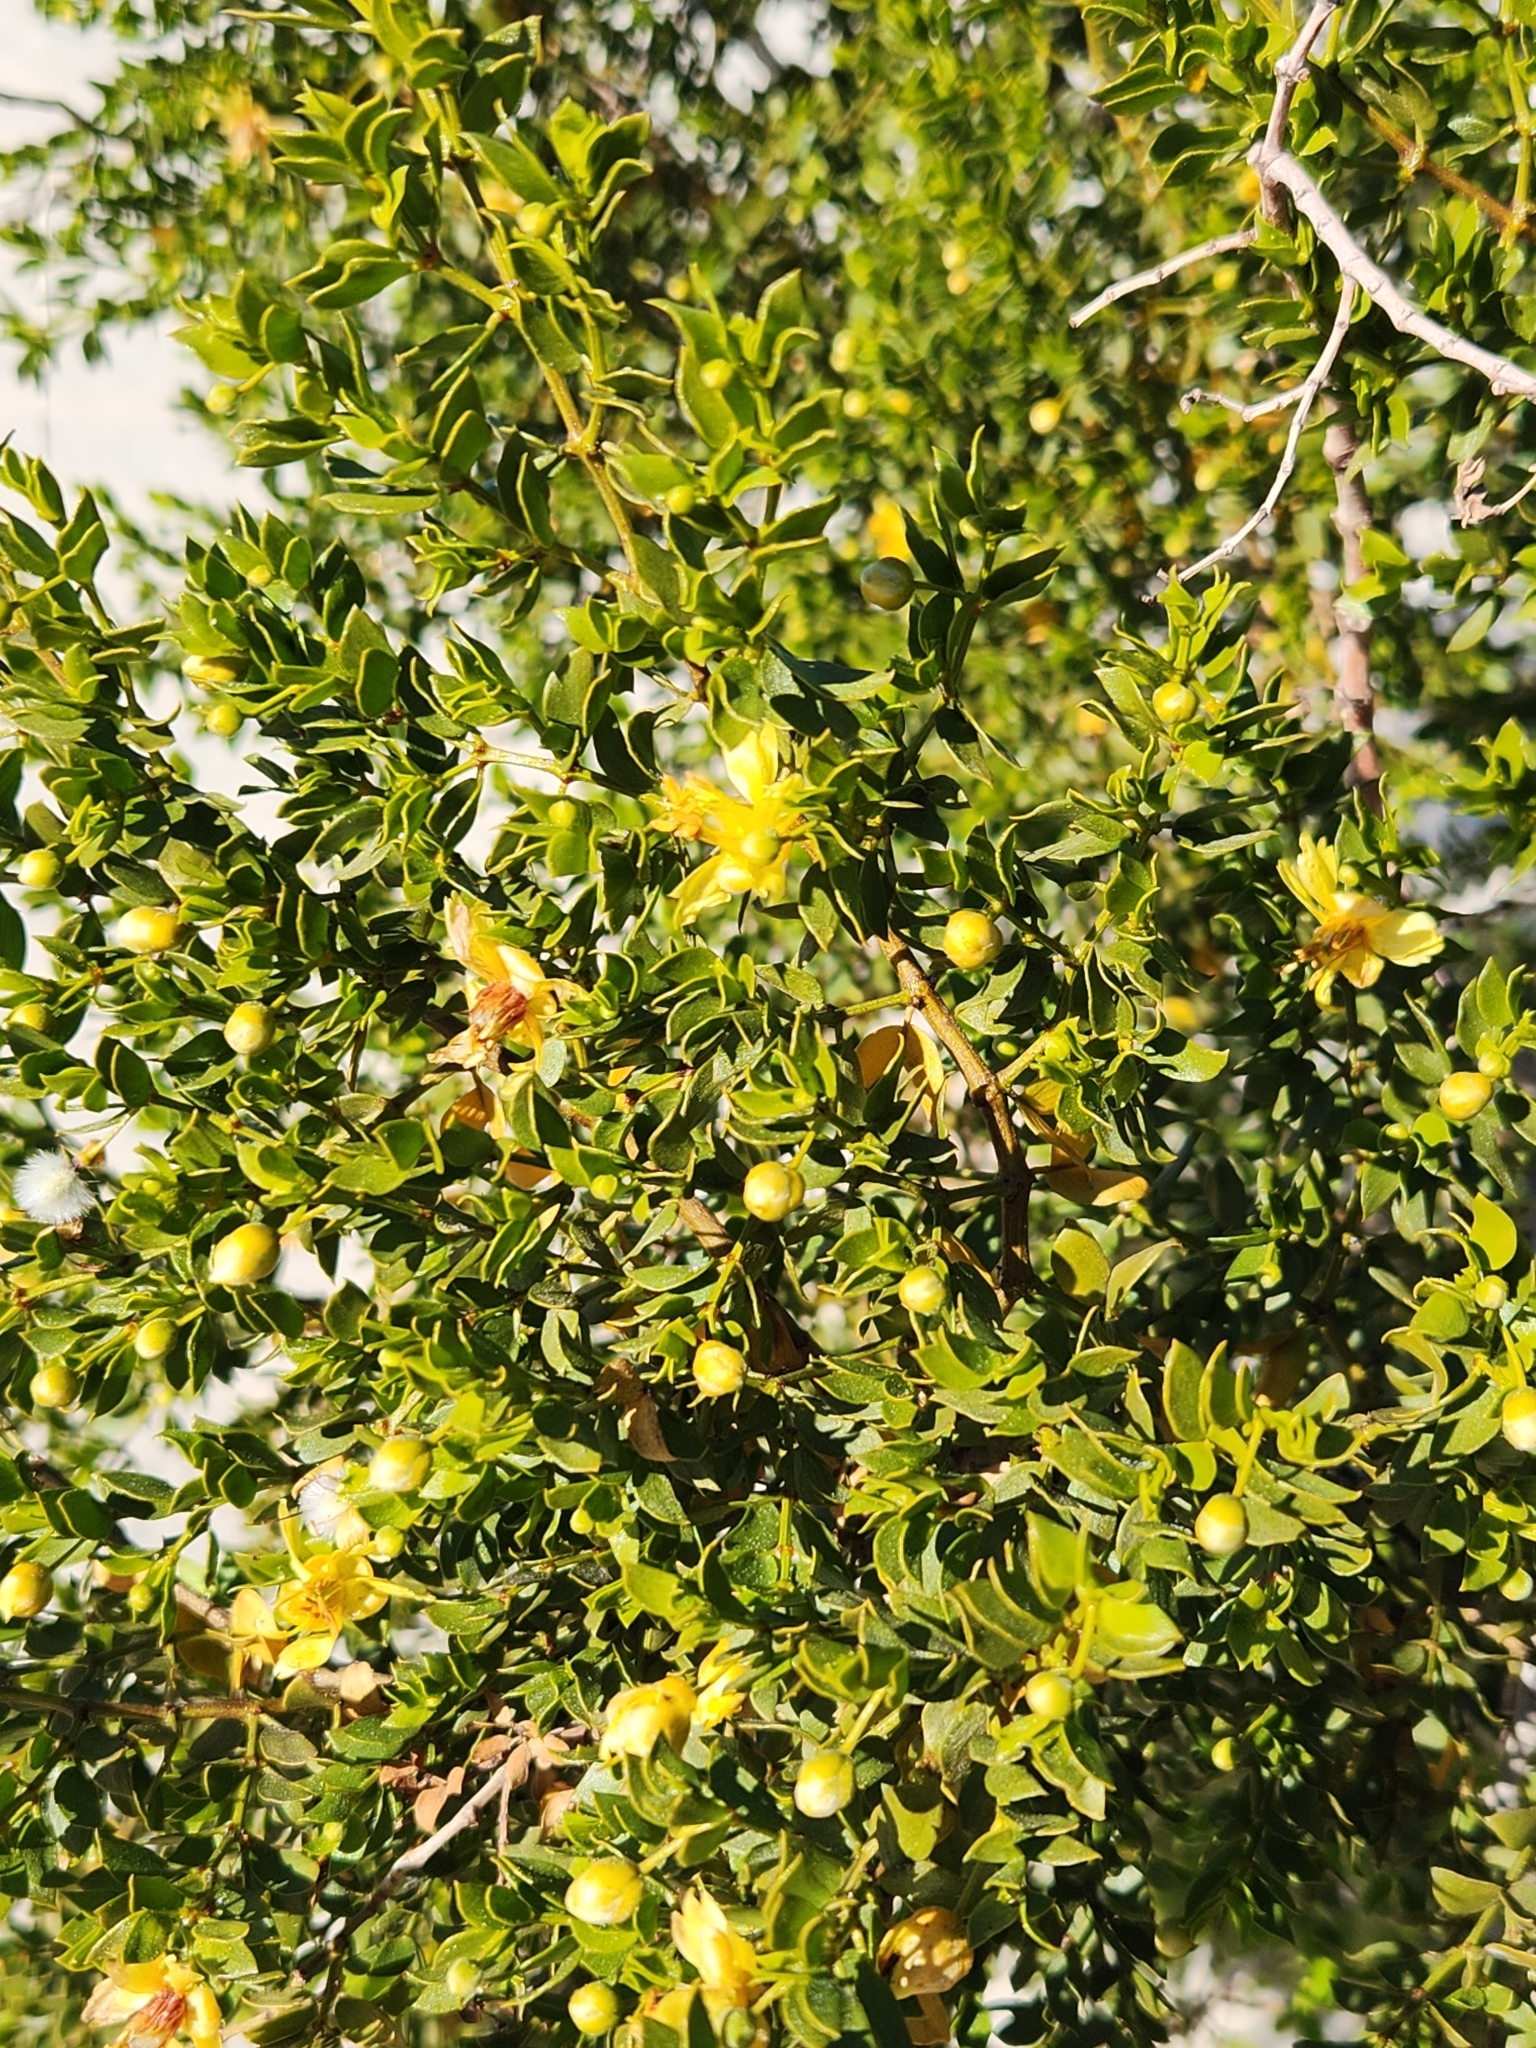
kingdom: Plantae
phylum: Tracheophyta
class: Magnoliopsida
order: Zygophyllales
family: Zygophyllaceae
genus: Larrea
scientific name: Larrea tridentata
